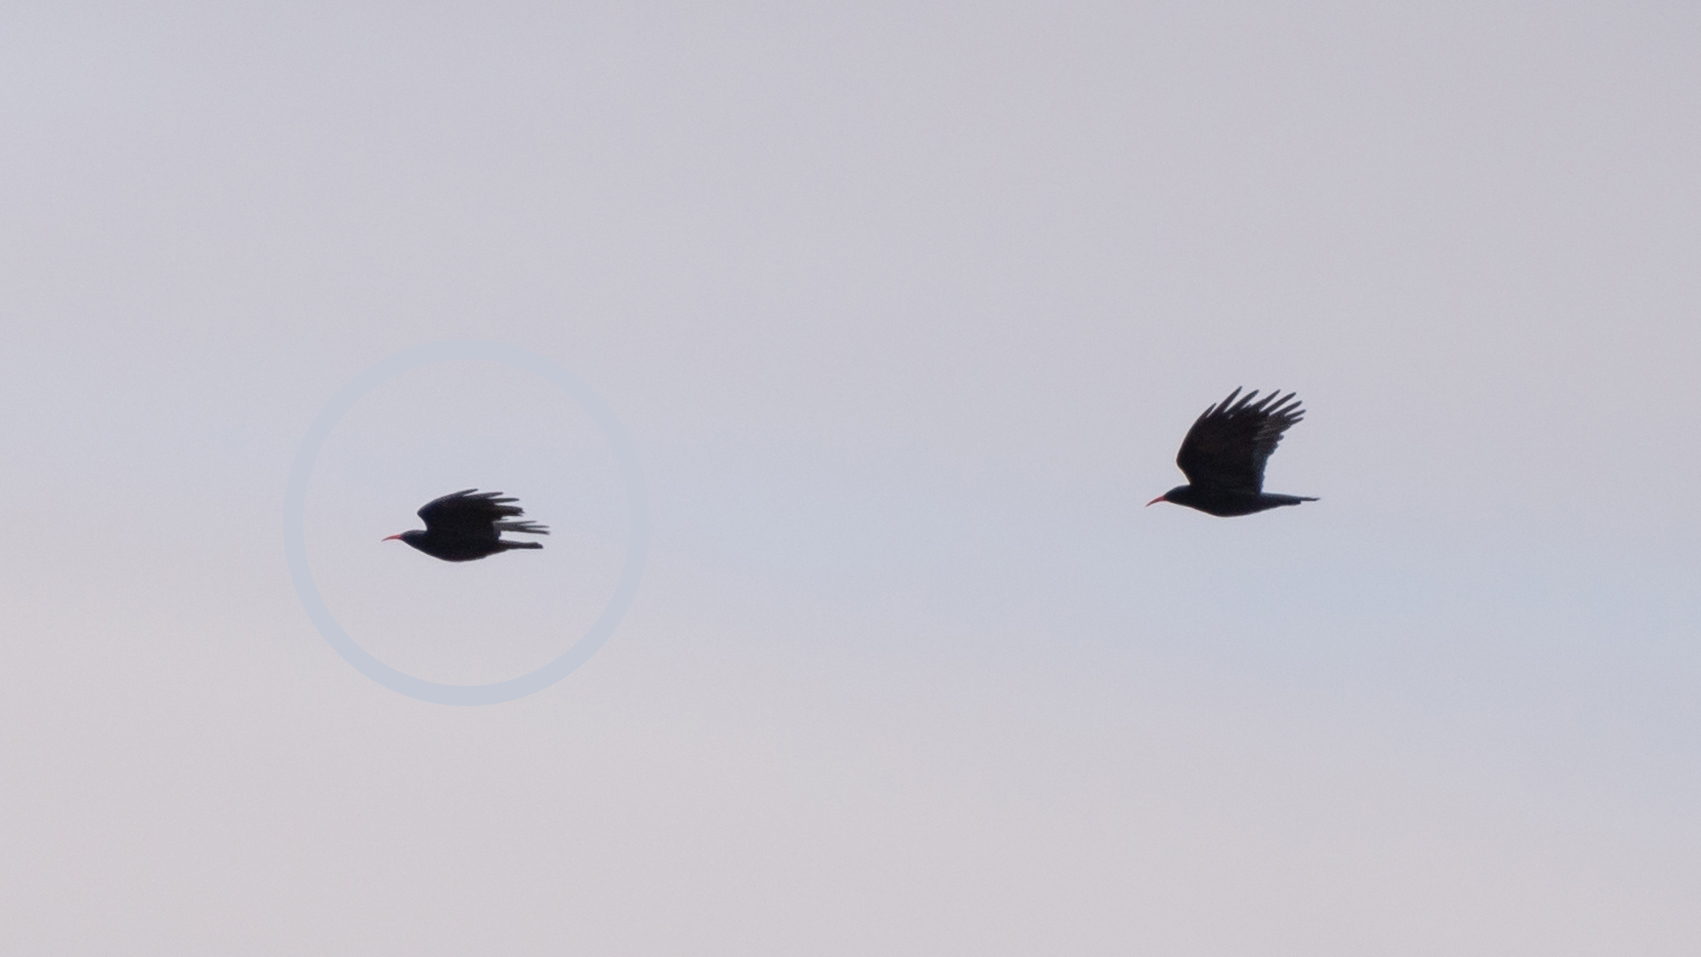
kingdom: Animalia
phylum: Chordata
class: Aves
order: Passeriformes
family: Corvidae
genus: Pyrrhocorax
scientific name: Pyrrhocorax pyrrhocorax
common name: Red-billed chough
